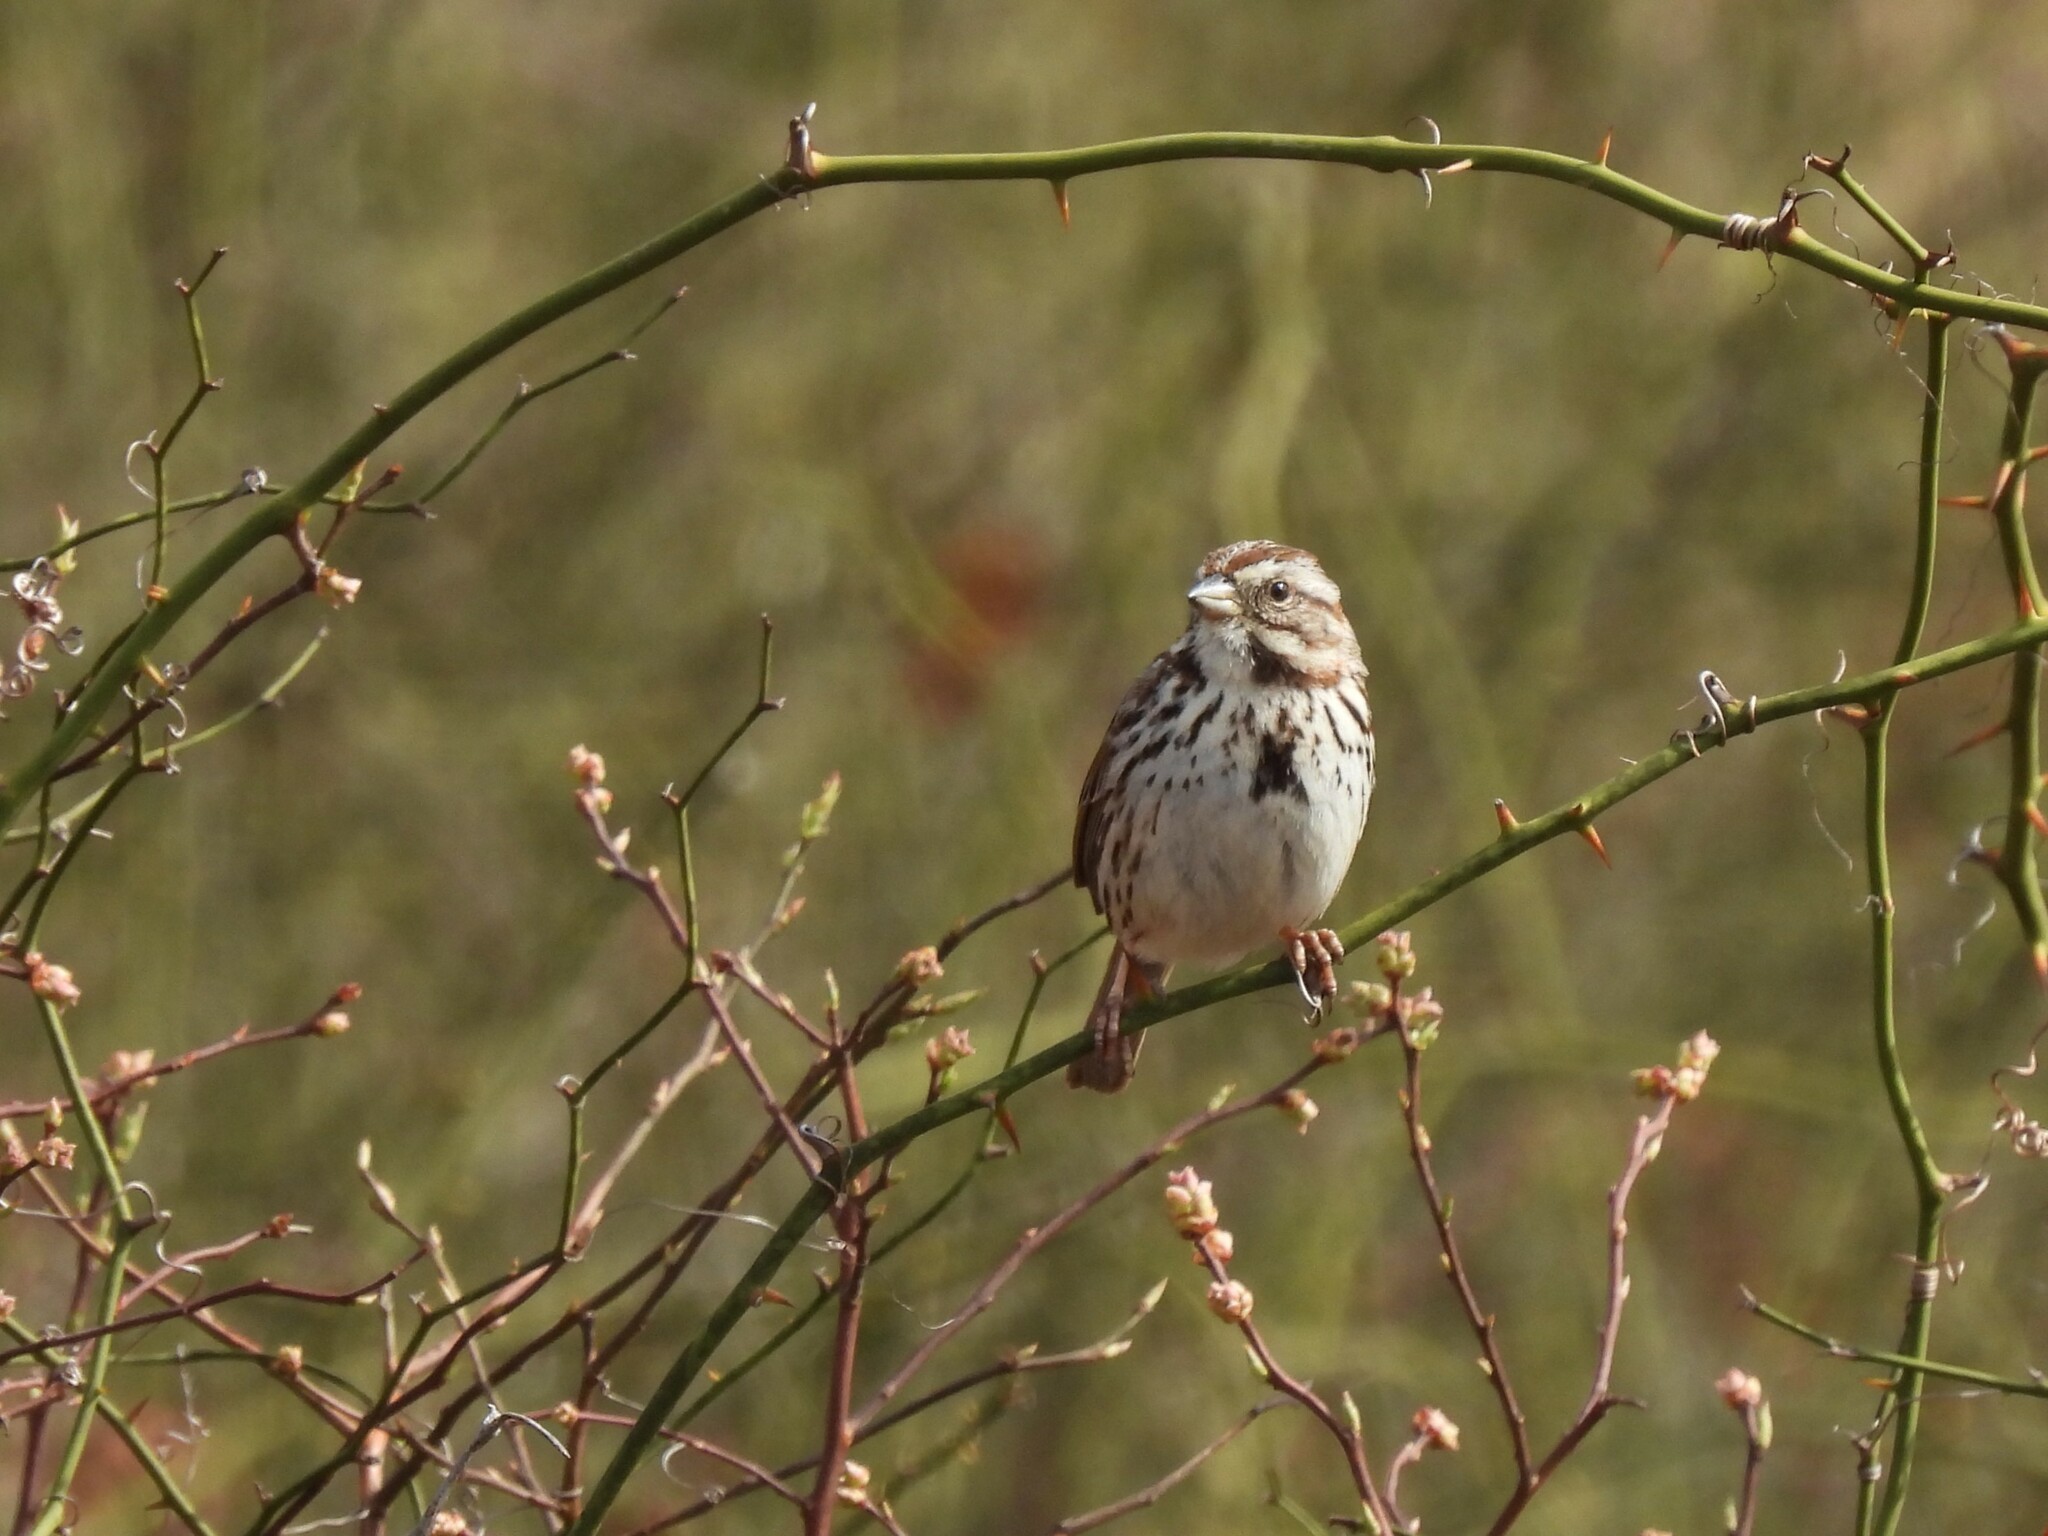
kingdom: Animalia
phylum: Chordata
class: Aves
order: Passeriformes
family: Passerellidae
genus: Melospiza
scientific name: Melospiza melodia
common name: Song sparrow
